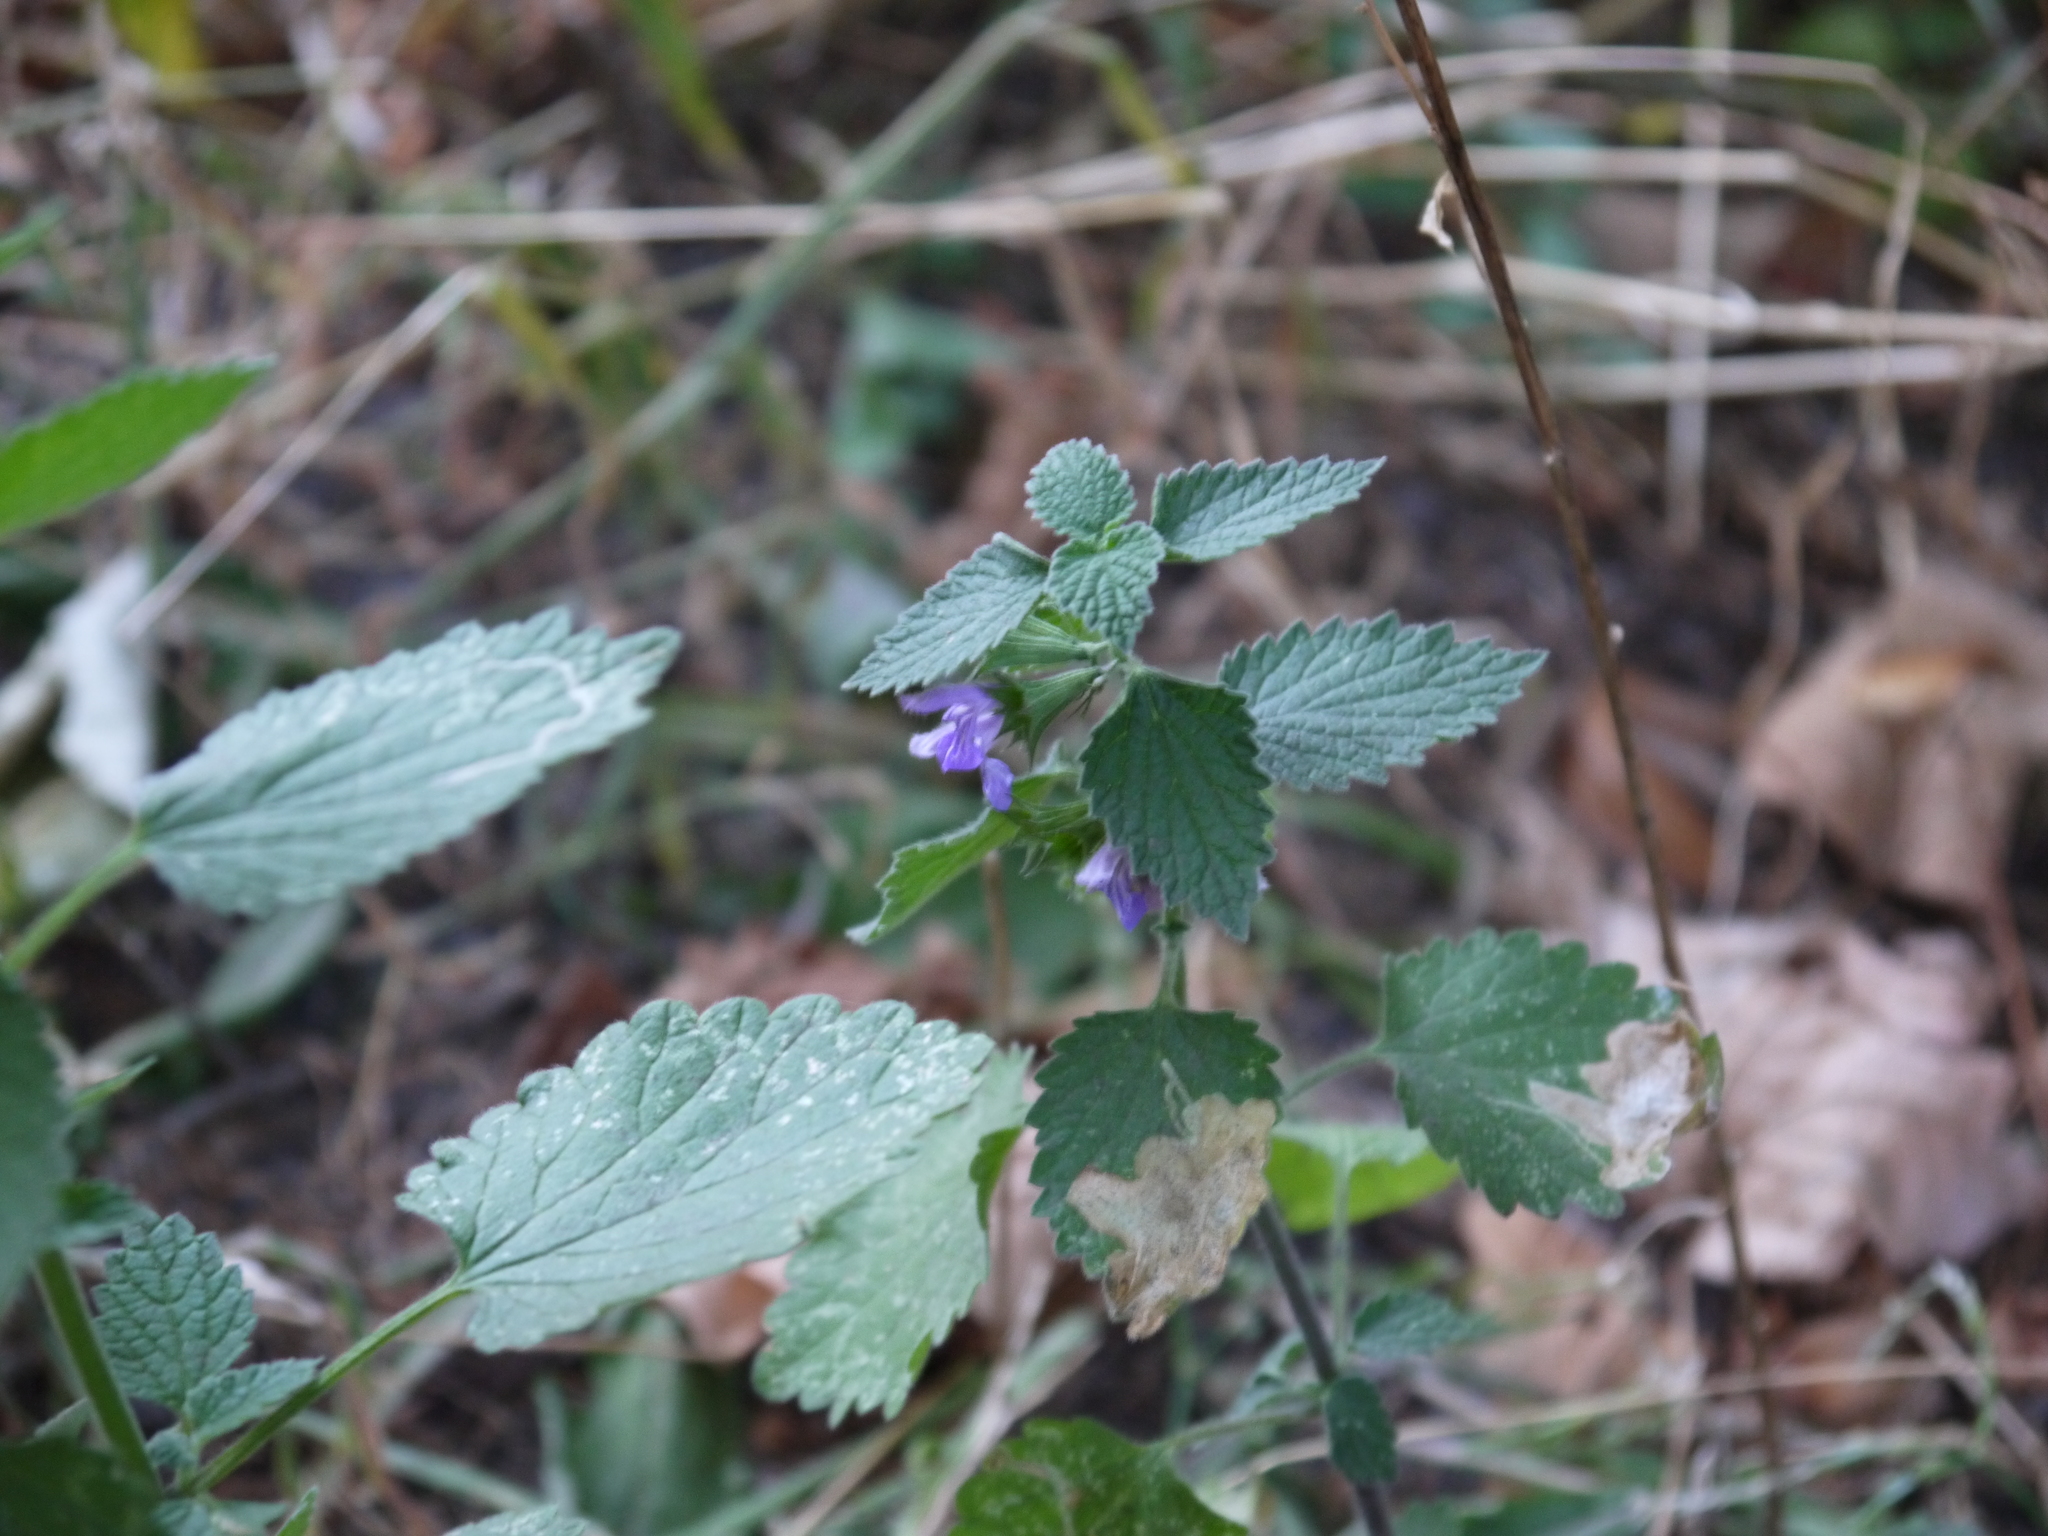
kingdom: Plantae
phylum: Tracheophyta
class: Magnoliopsida
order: Lamiales
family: Lamiaceae
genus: Ballota
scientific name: Ballota nigra
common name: Black horehound
